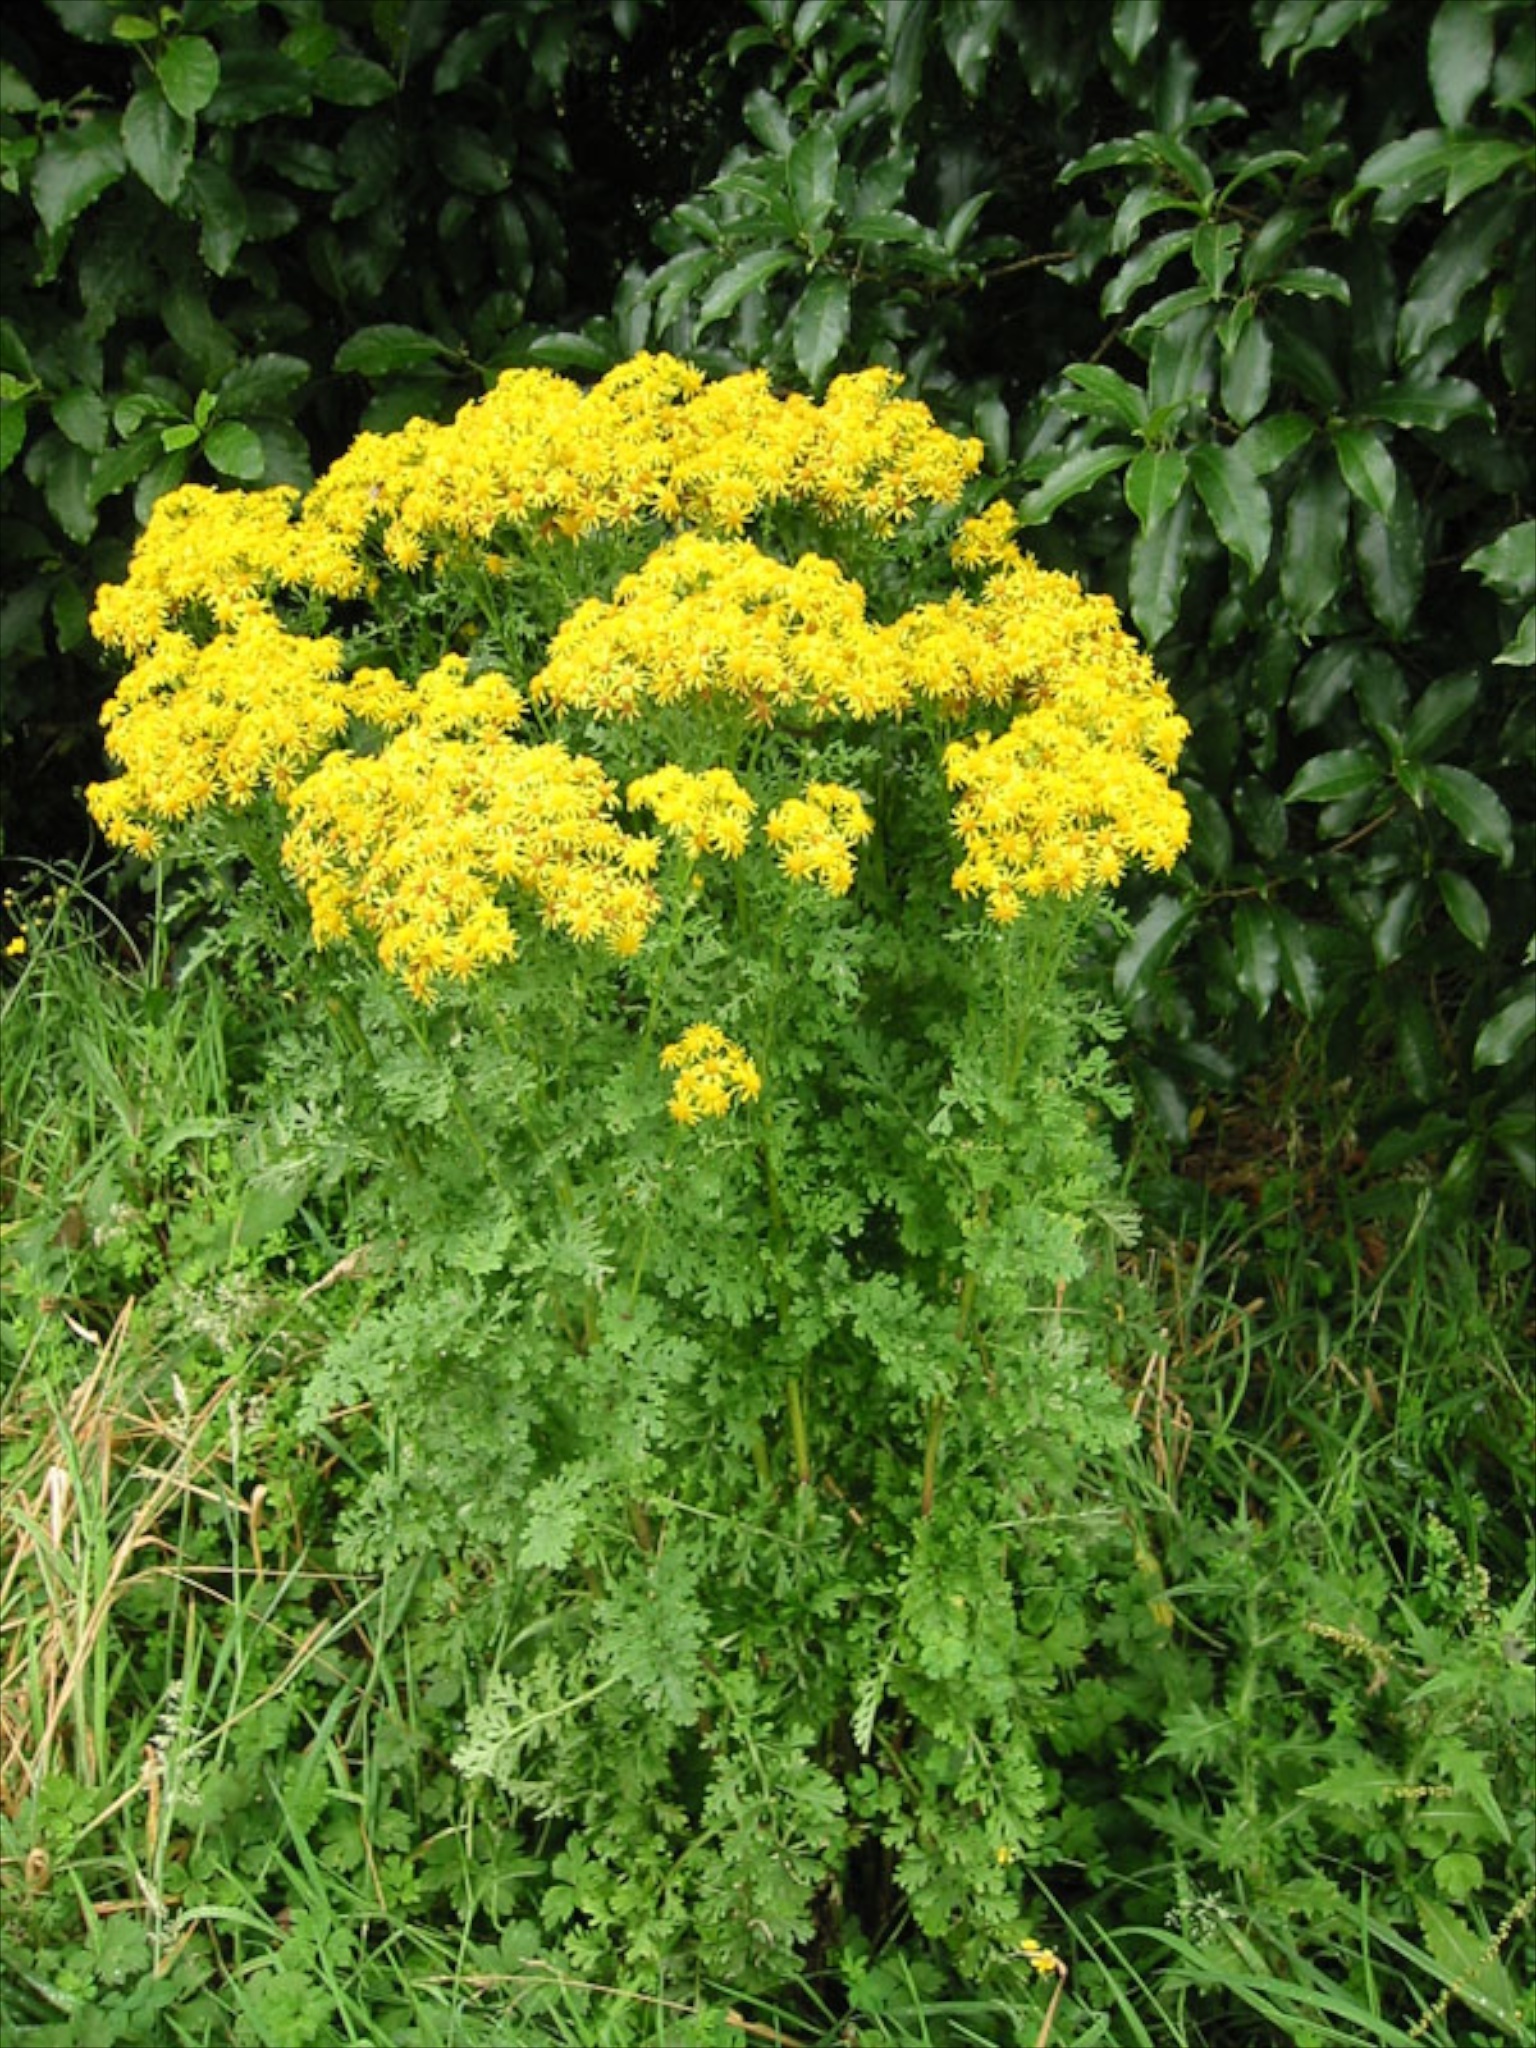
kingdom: Plantae
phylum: Tracheophyta
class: Magnoliopsida
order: Asterales
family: Asteraceae
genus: Jacobaea
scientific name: Jacobaea vulgaris
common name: Stinking willie
